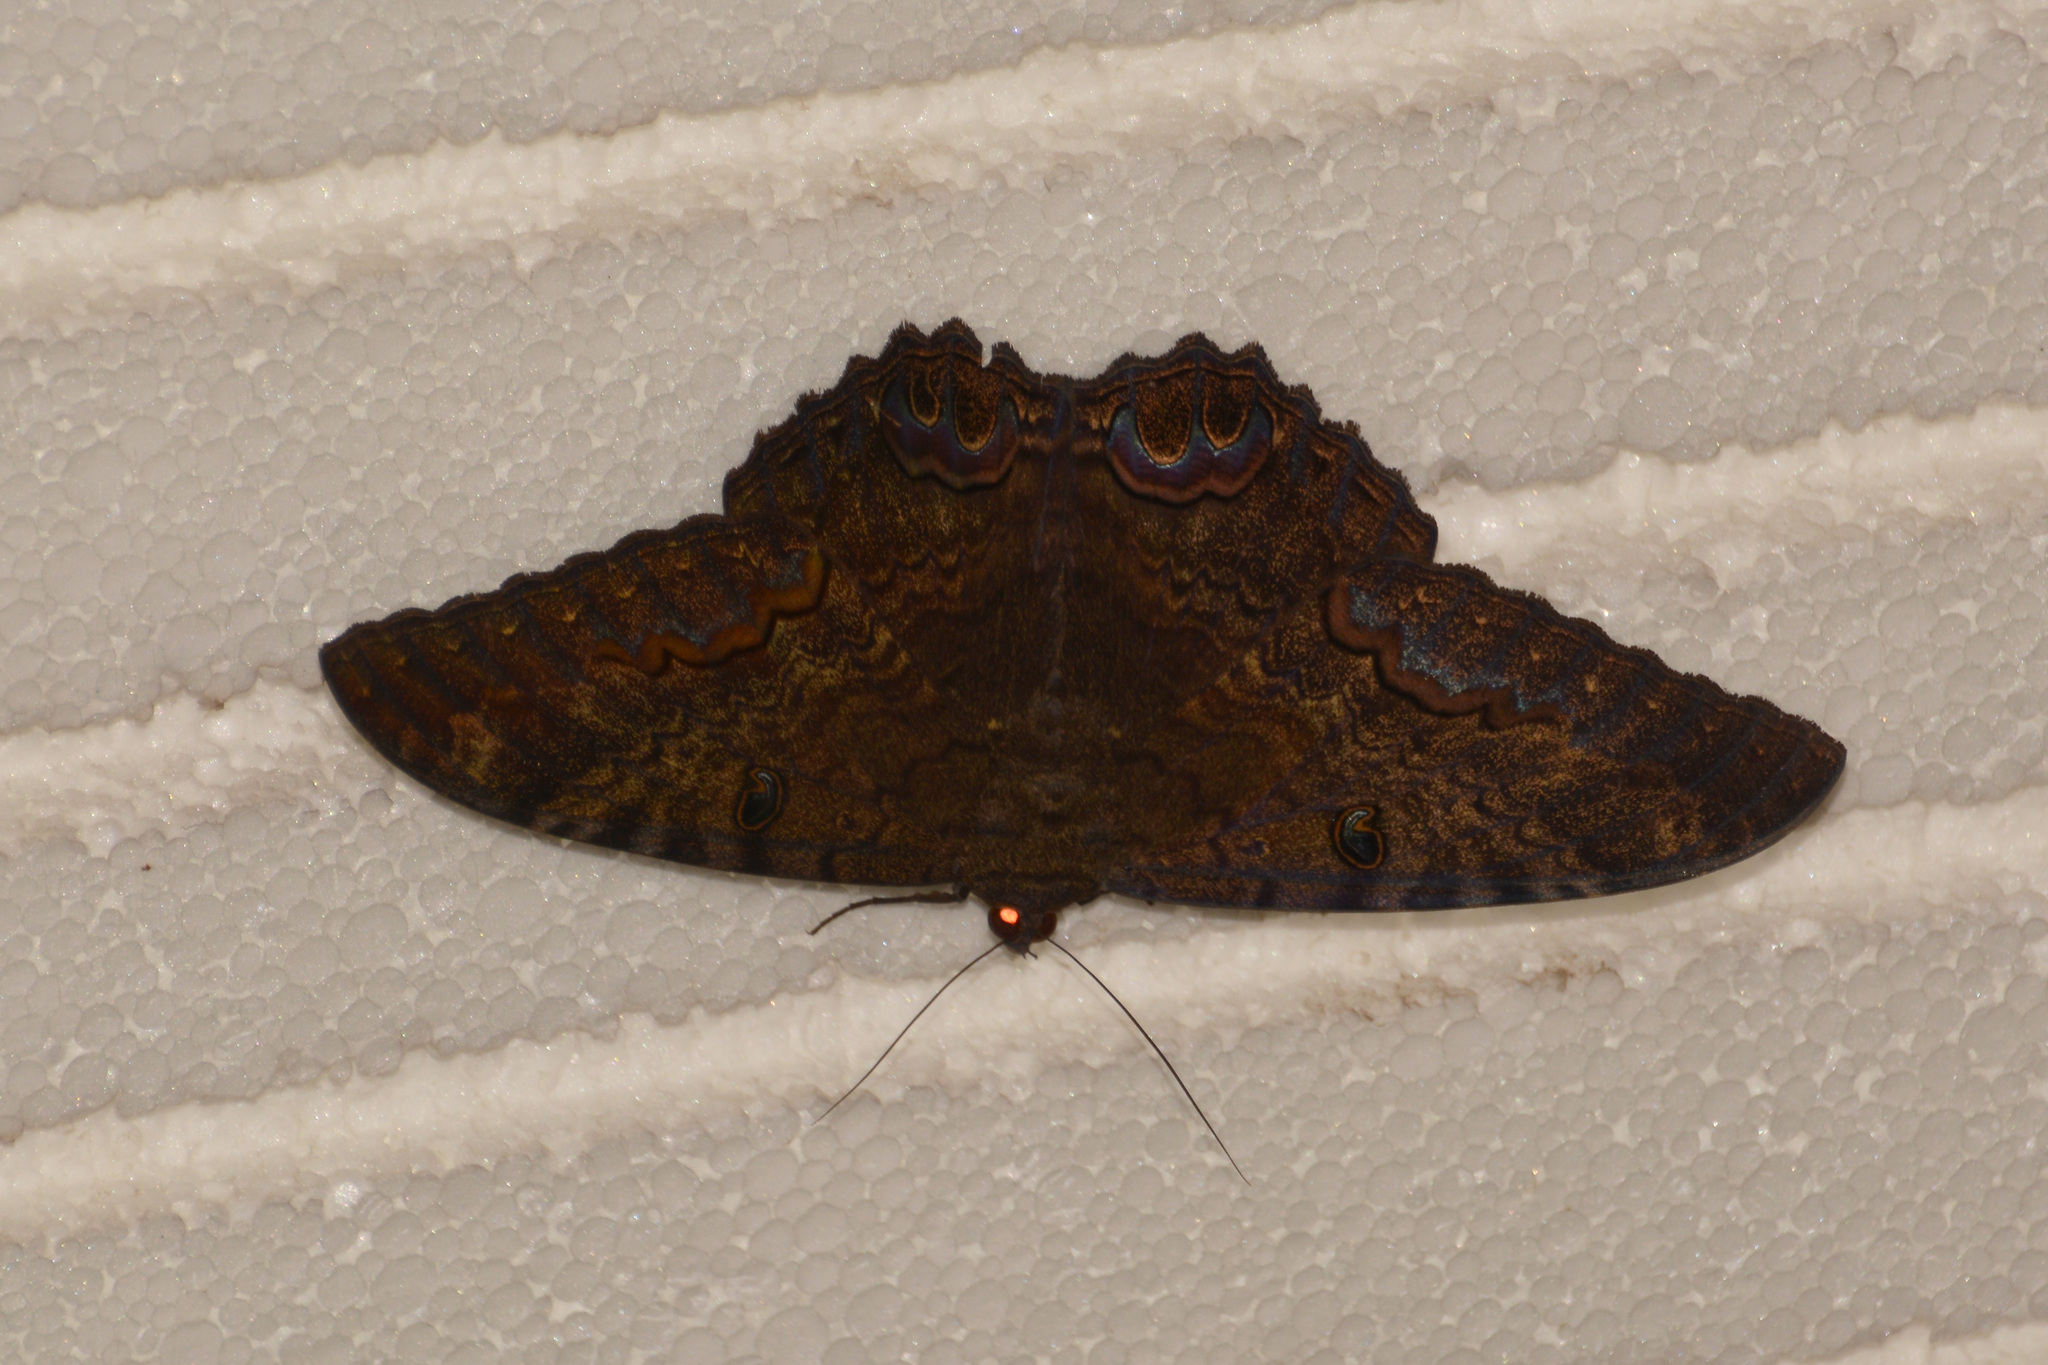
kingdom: Animalia
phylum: Arthropoda
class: Insecta
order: Lepidoptera
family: Erebidae
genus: Ascalapha
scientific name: Ascalapha odorata
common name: Black witch
